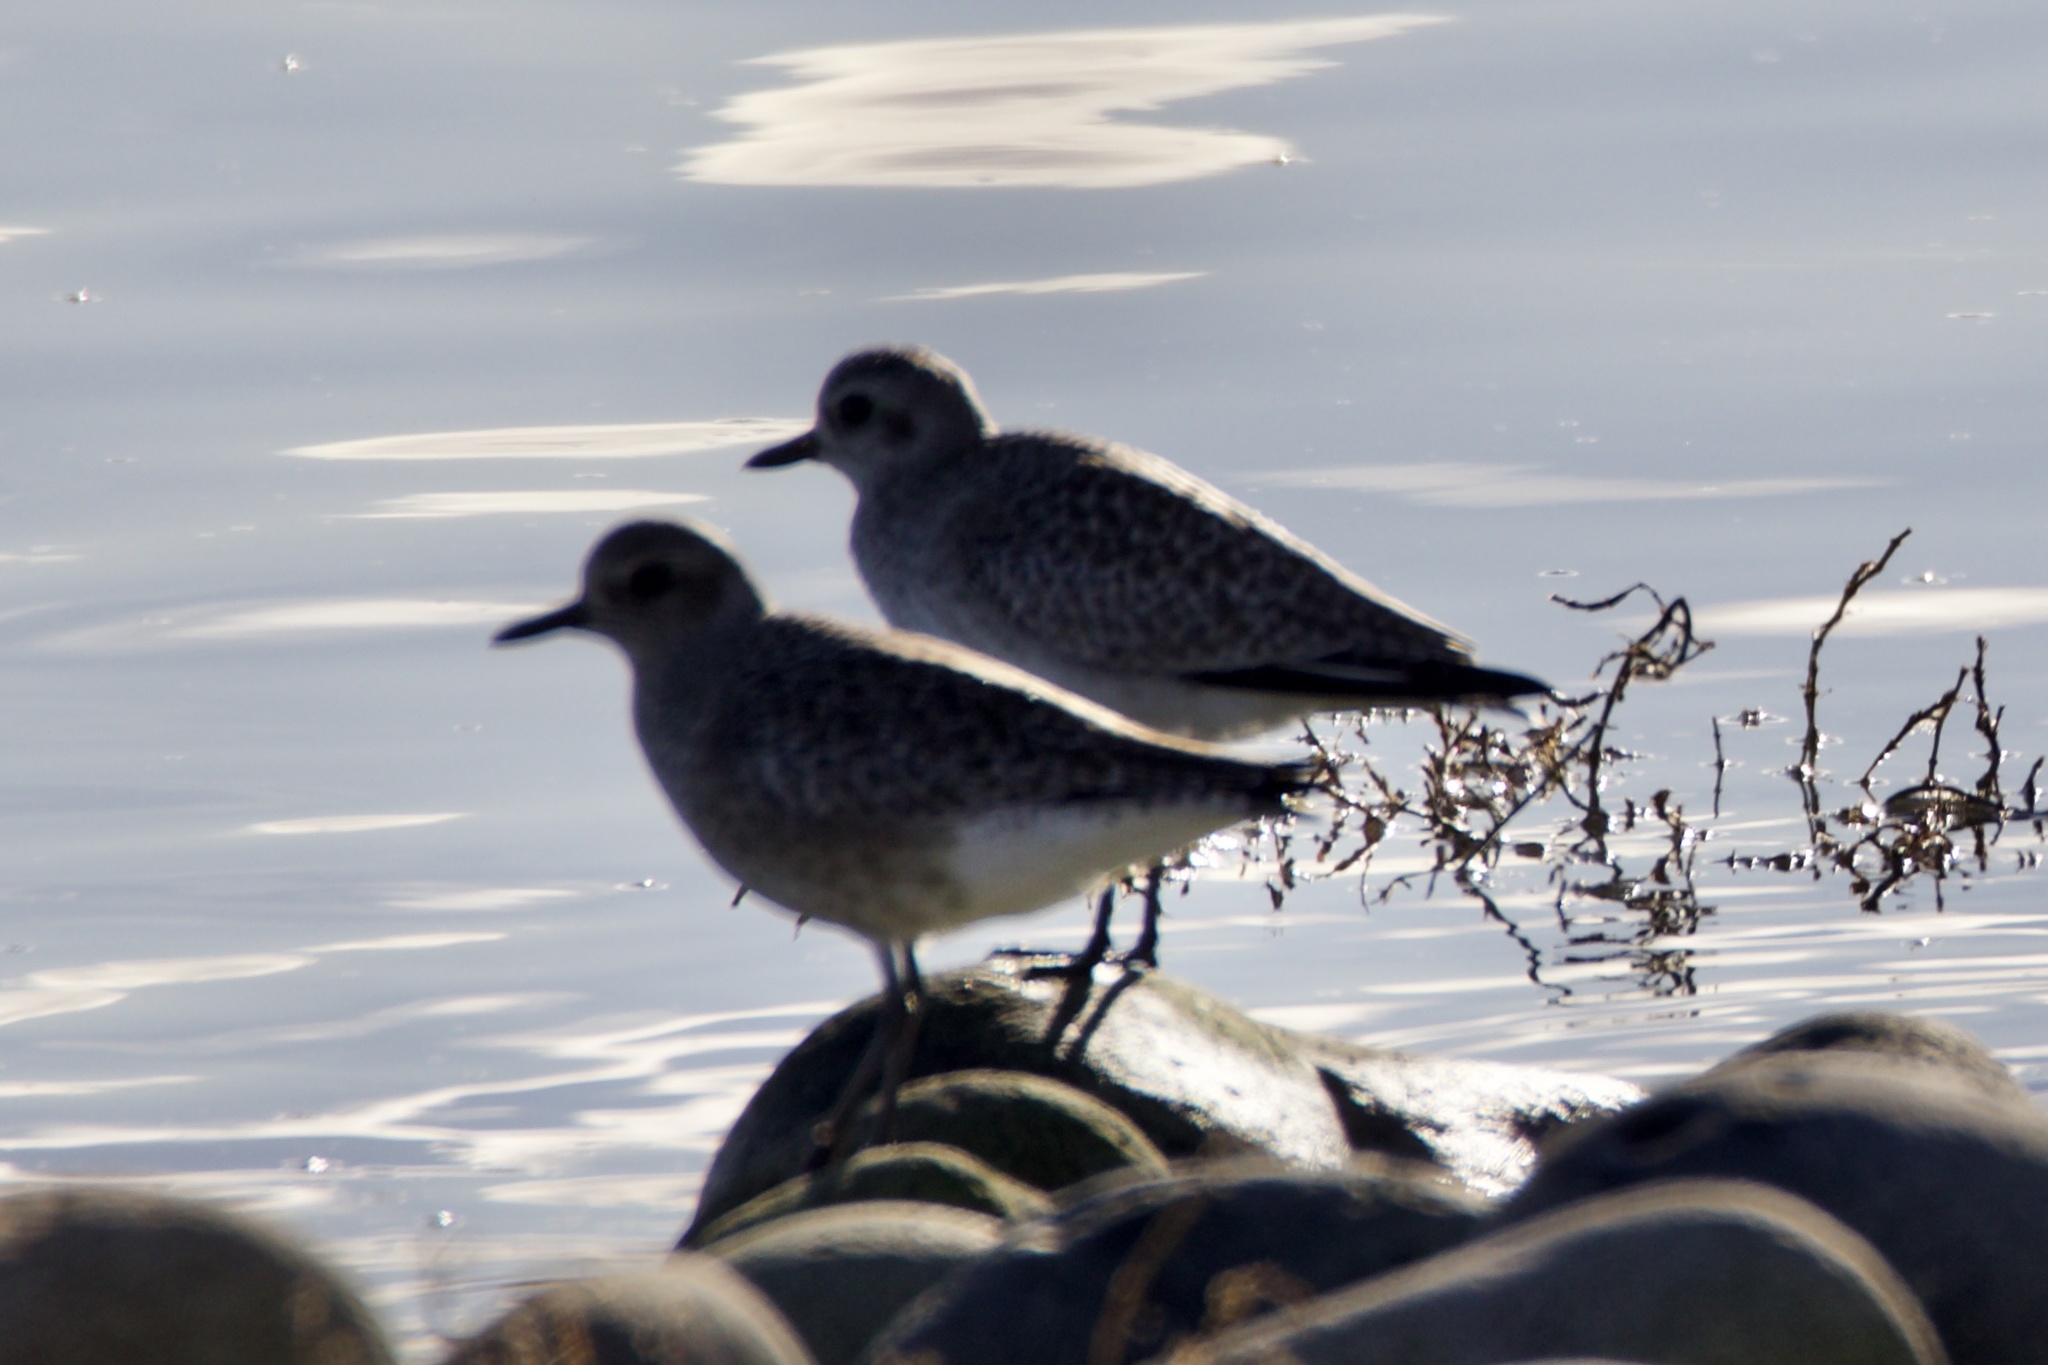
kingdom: Animalia
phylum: Chordata
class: Aves
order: Charadriiformes
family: Charadriidae
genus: Pluvialis
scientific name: Pluvialis squatarola
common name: Grey plover
